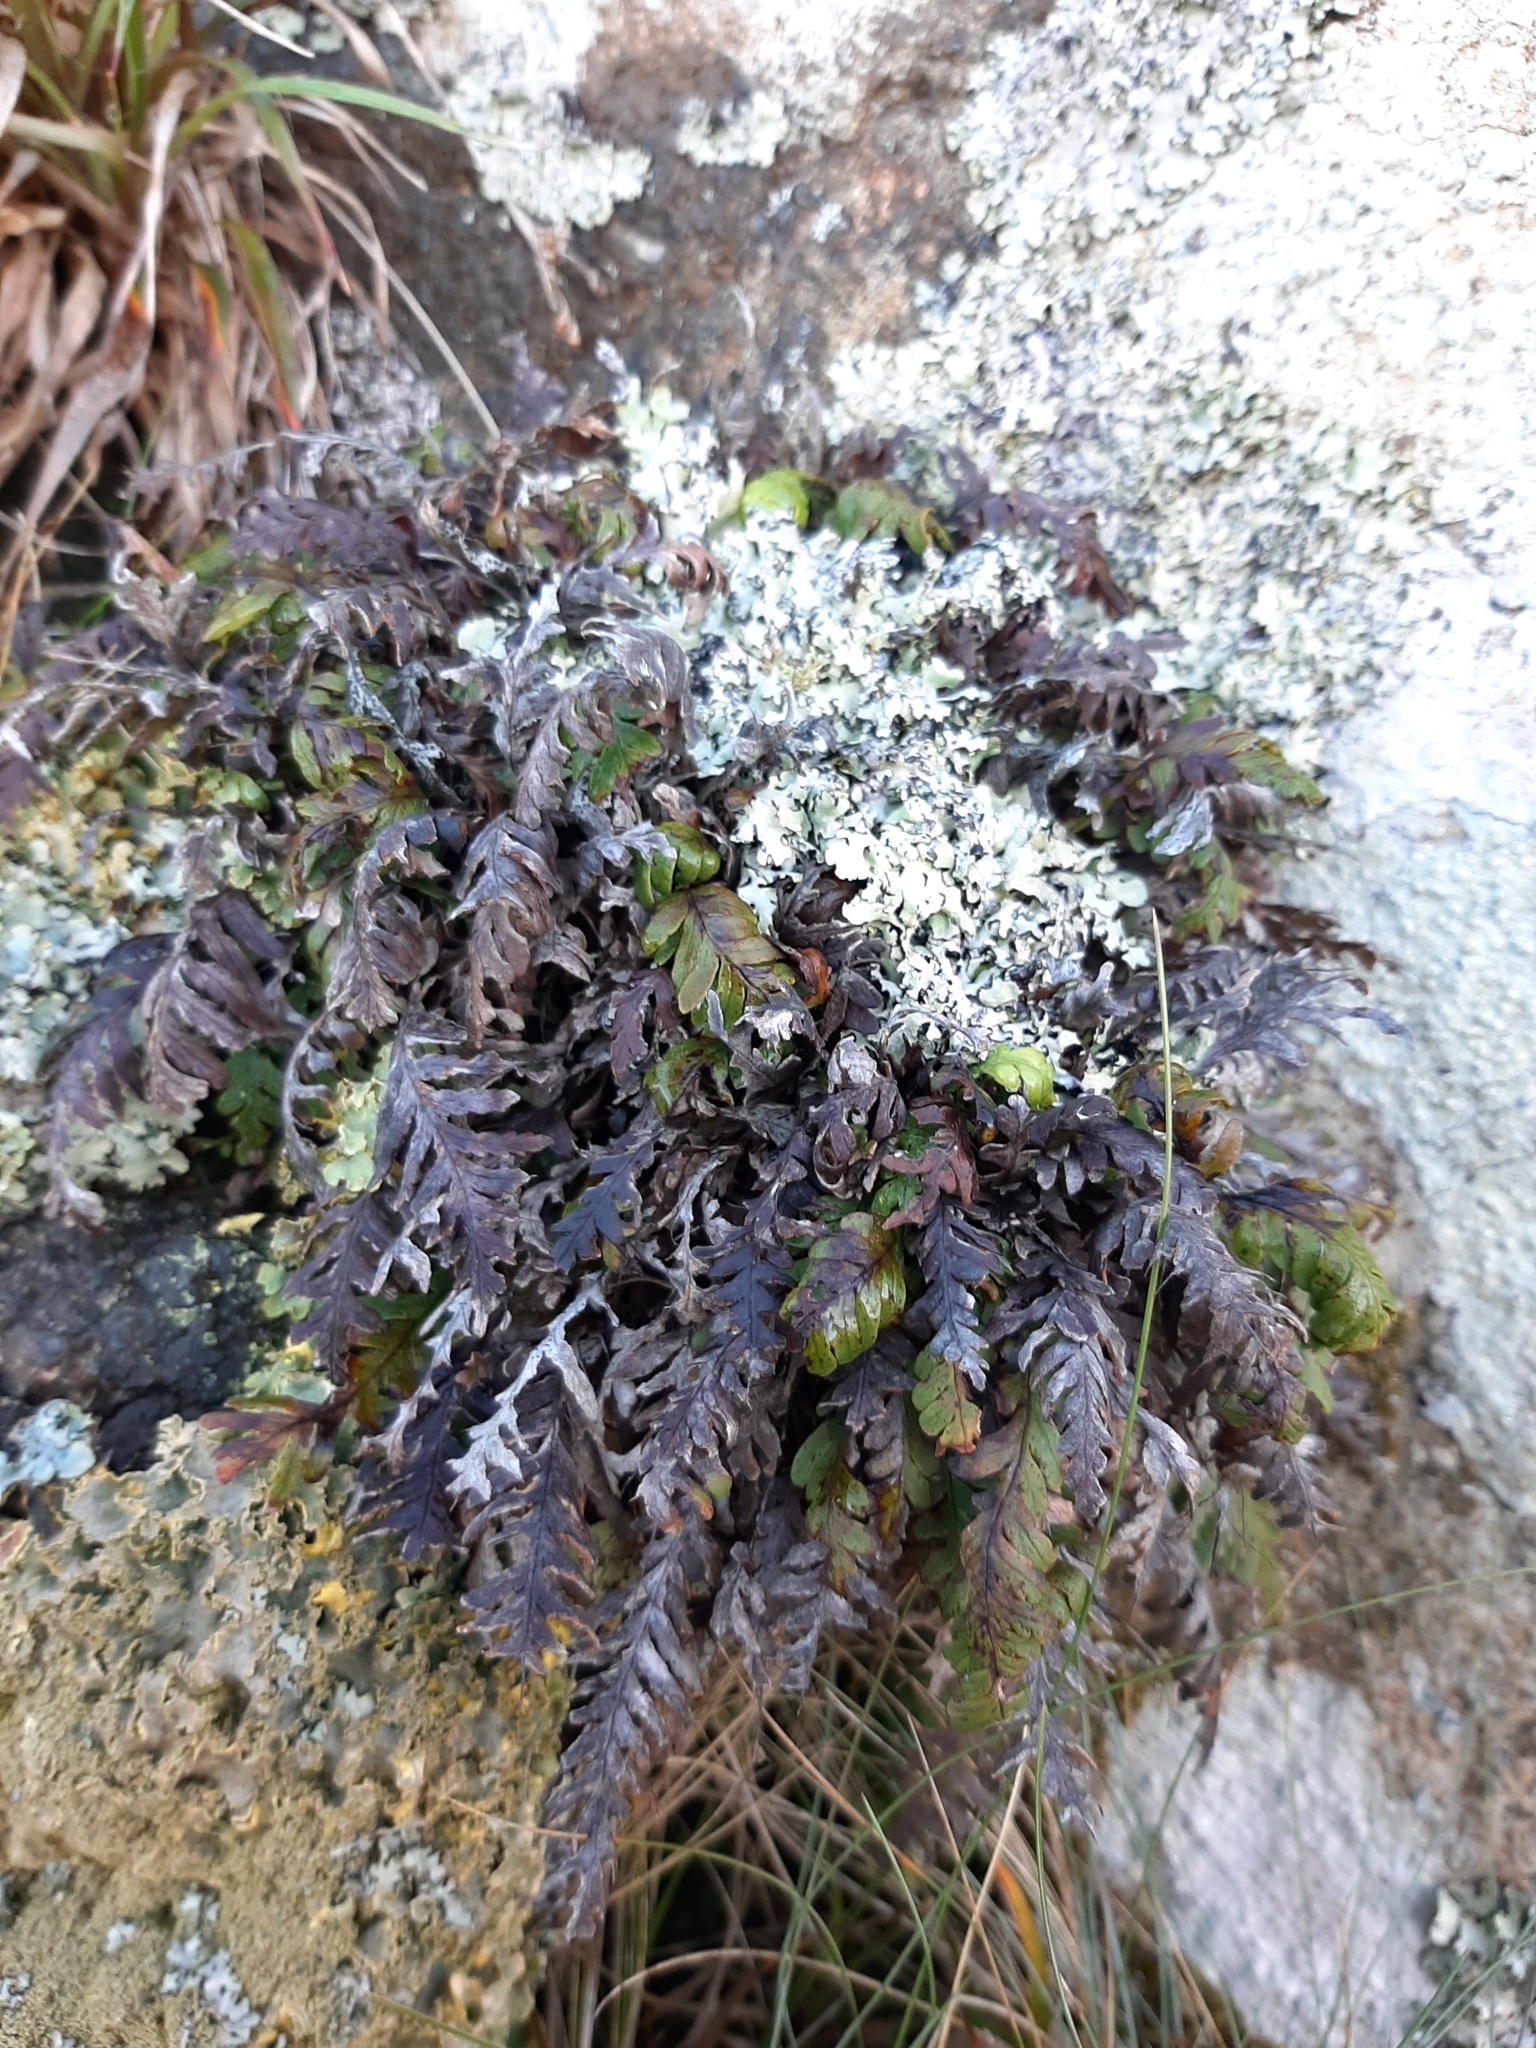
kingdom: Plantae
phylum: Tracheophyta
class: Polypodiopsida
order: Polypodiales
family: Polypodiaceae
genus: Notogrammitis
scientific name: Notogrammitis heterophylla
